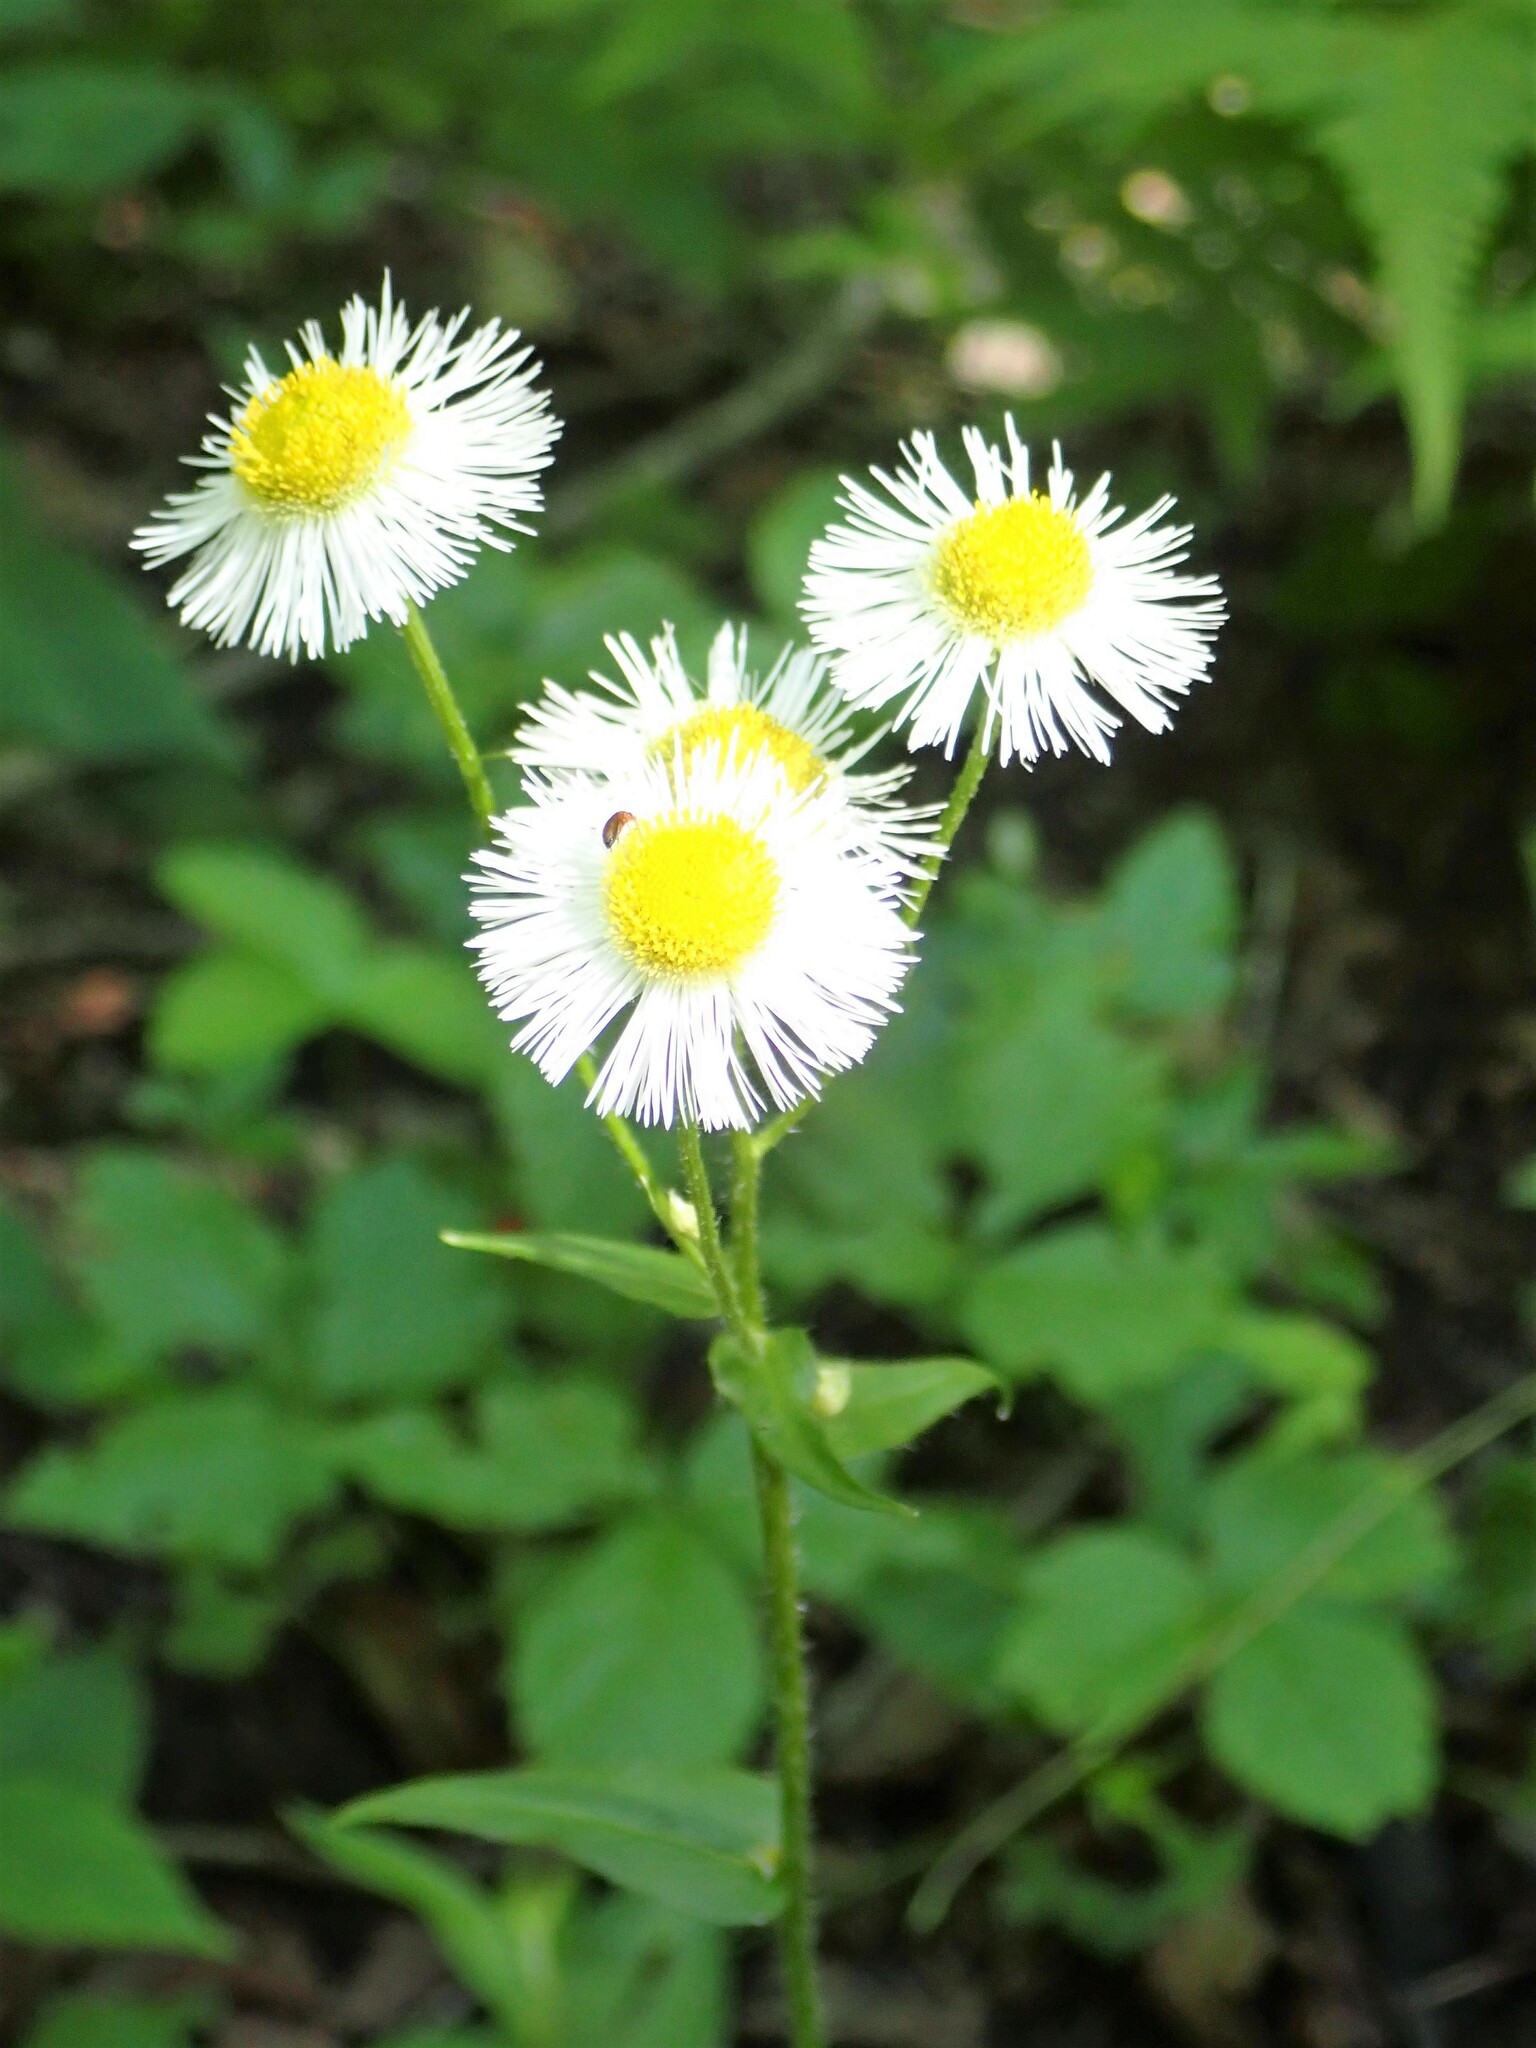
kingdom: Plantae
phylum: Tracheophyta
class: Magnoliopsida
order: Asterales
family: Asteraceae
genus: Erigeron
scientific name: Erigeron philadelphicus
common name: Robin's-plantain
